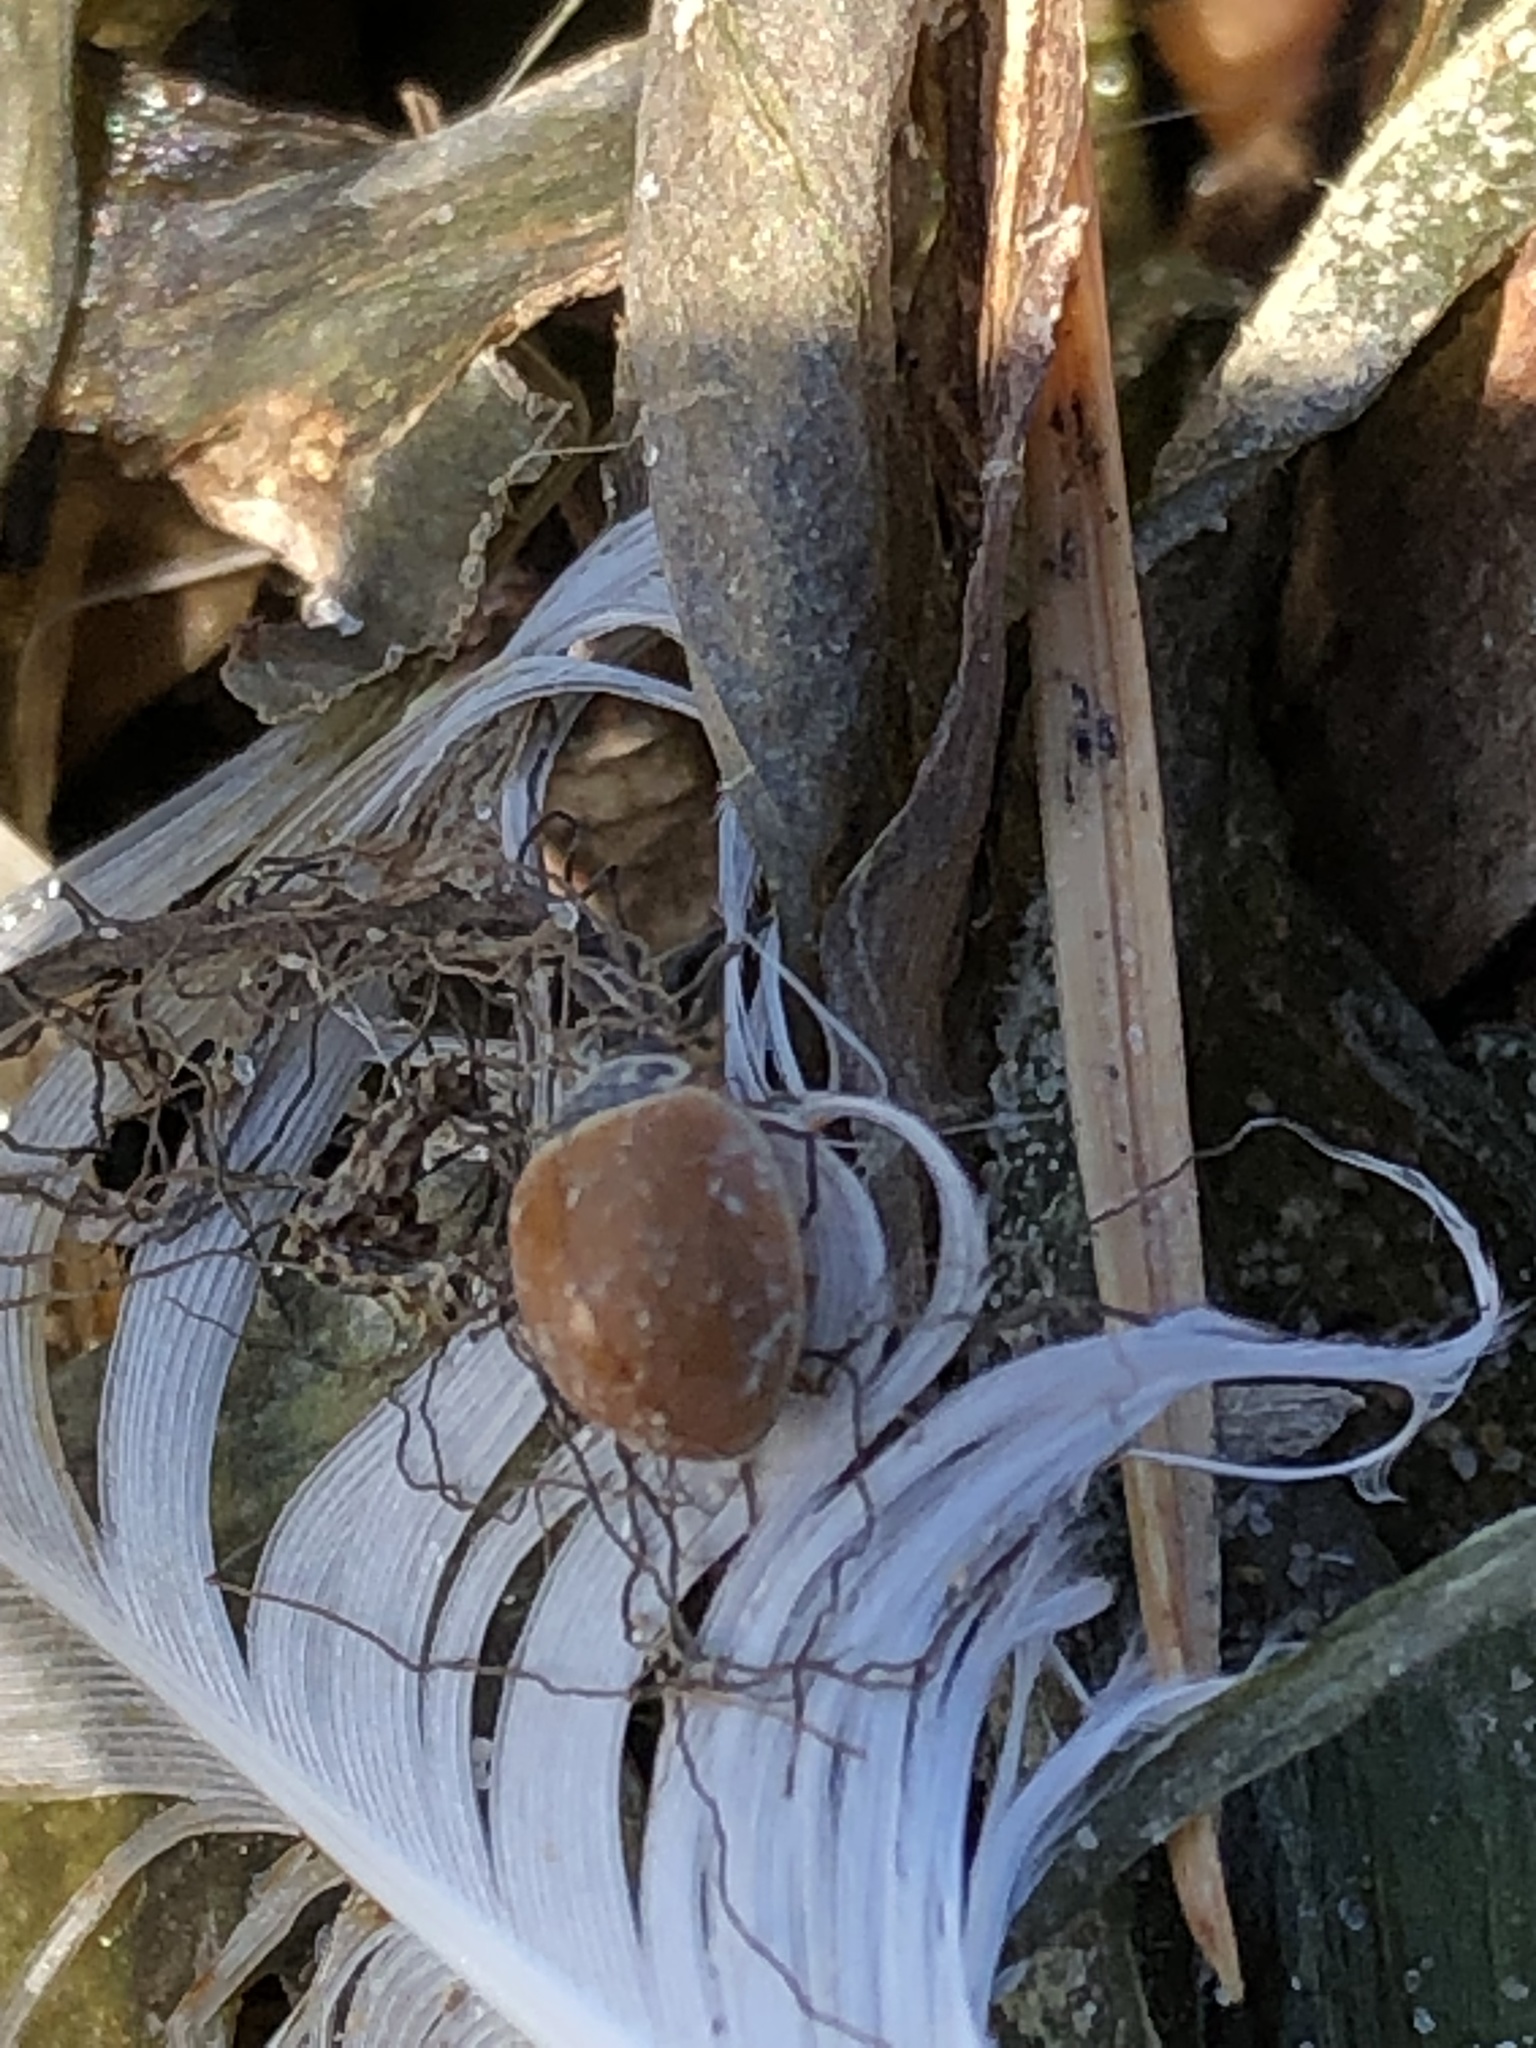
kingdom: Animalia
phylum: Arthropoda
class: Insecta
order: Coleoptera
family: Coccinellidae
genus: Cycloneda
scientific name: Cycloneda munda
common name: Polished lady beetle
